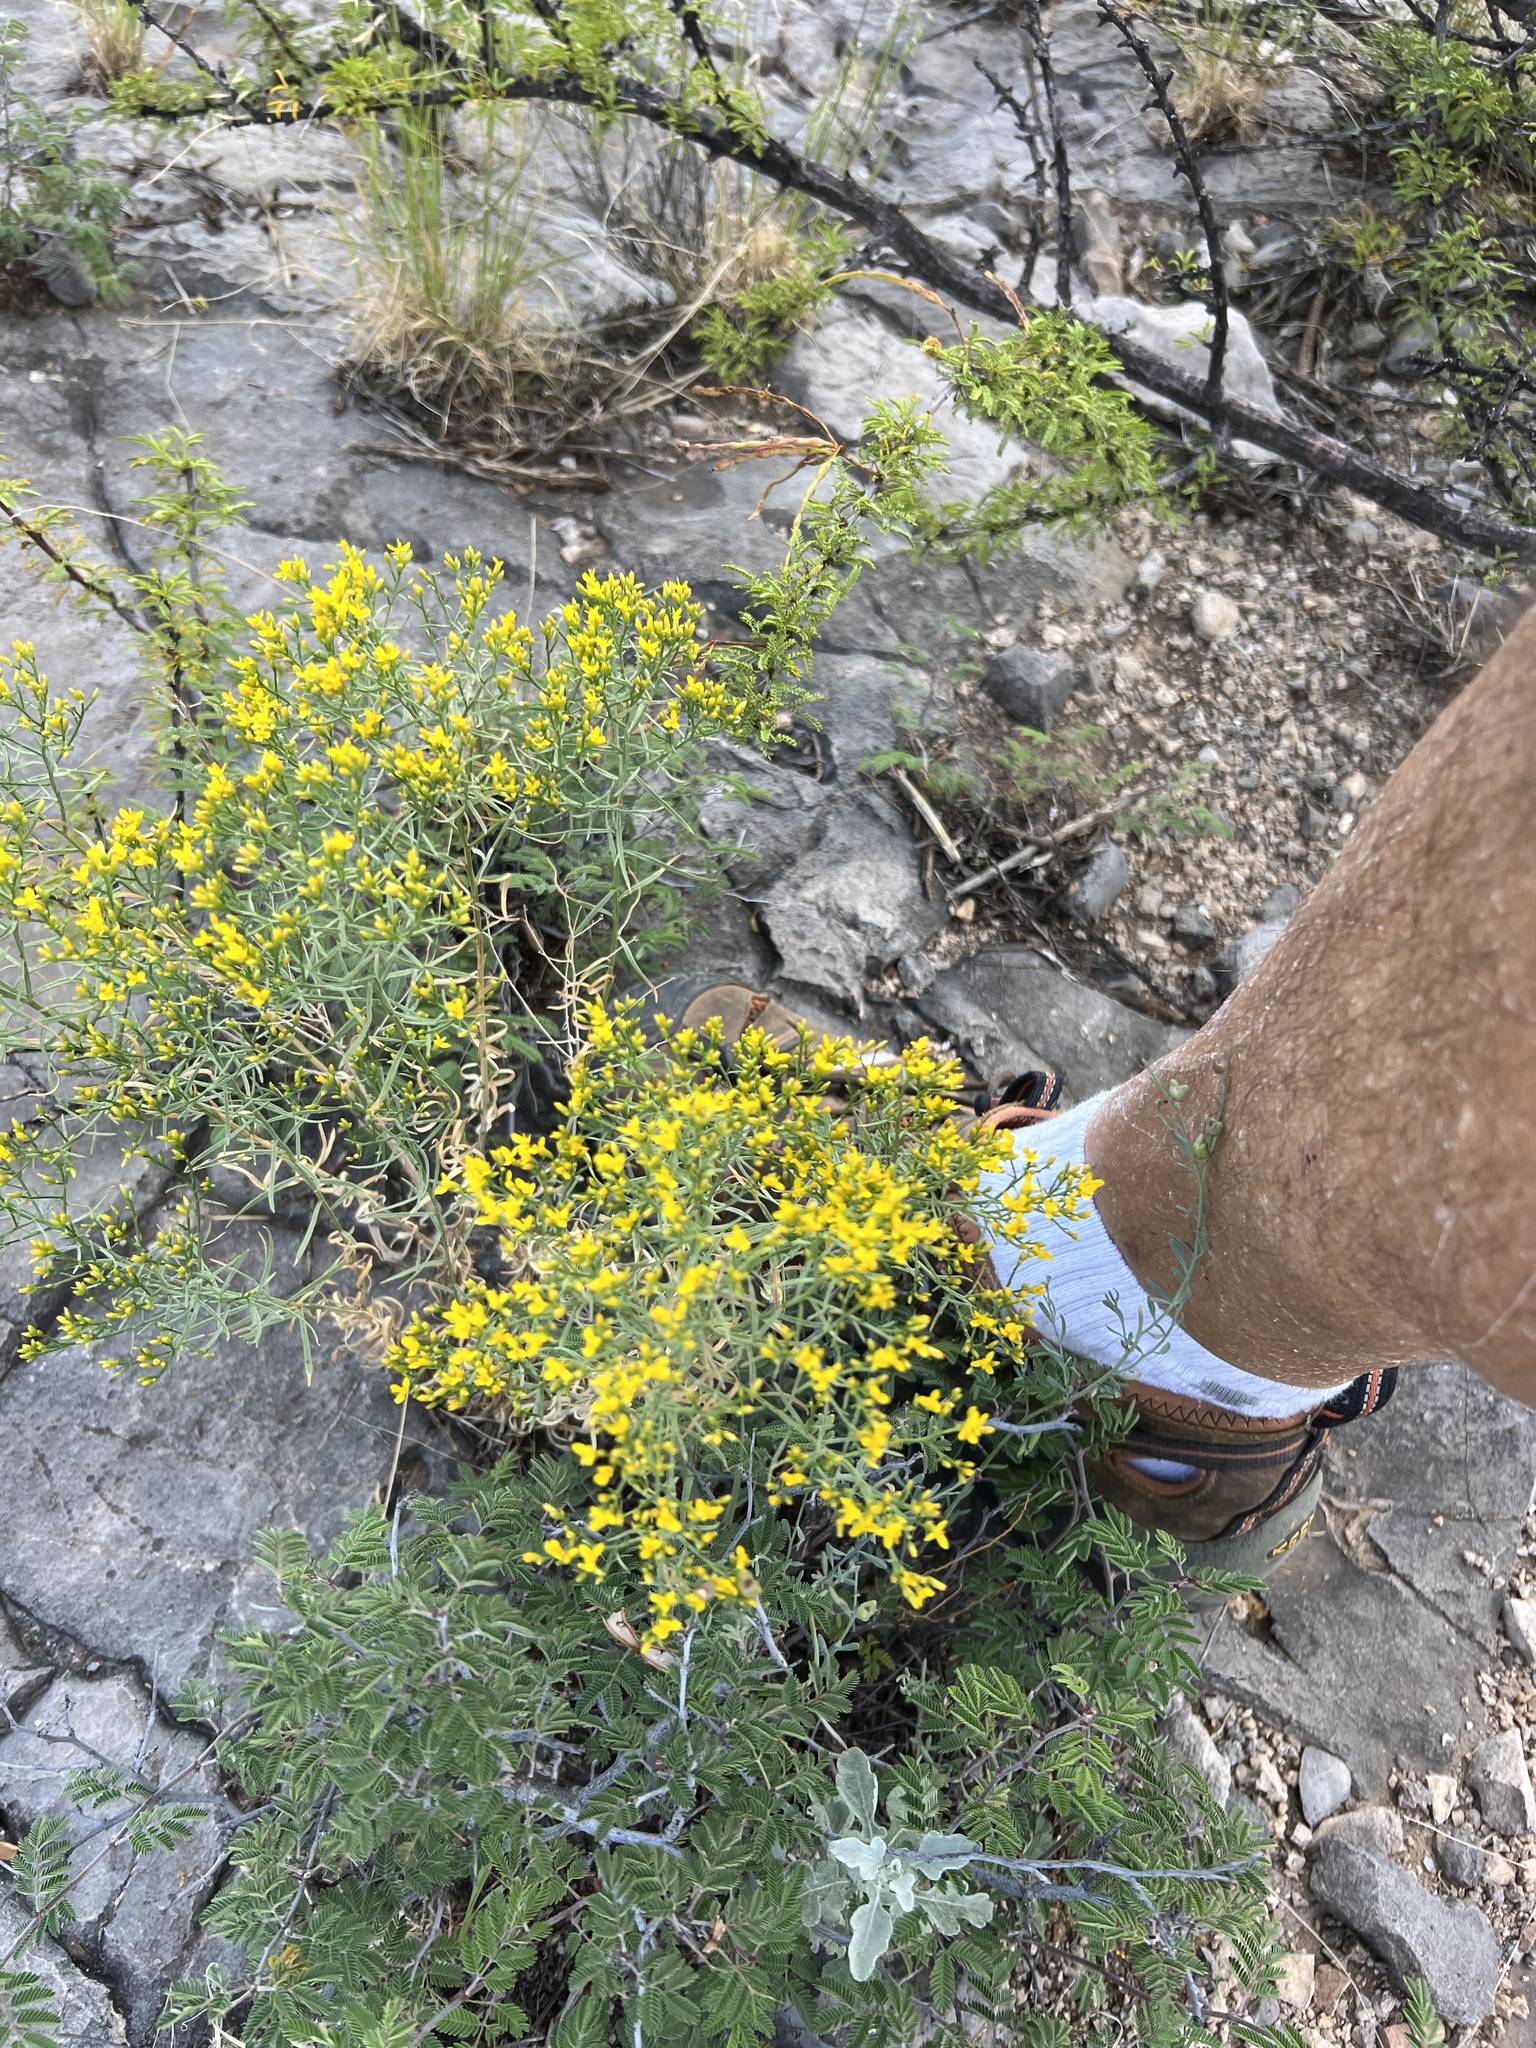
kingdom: Plantae
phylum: Tracheophyta
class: Magnoliopsida
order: Asterales
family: Asteraceae
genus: Gutierrezia
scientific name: Gutierrezia sarothrae
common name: Broom snakeweed
